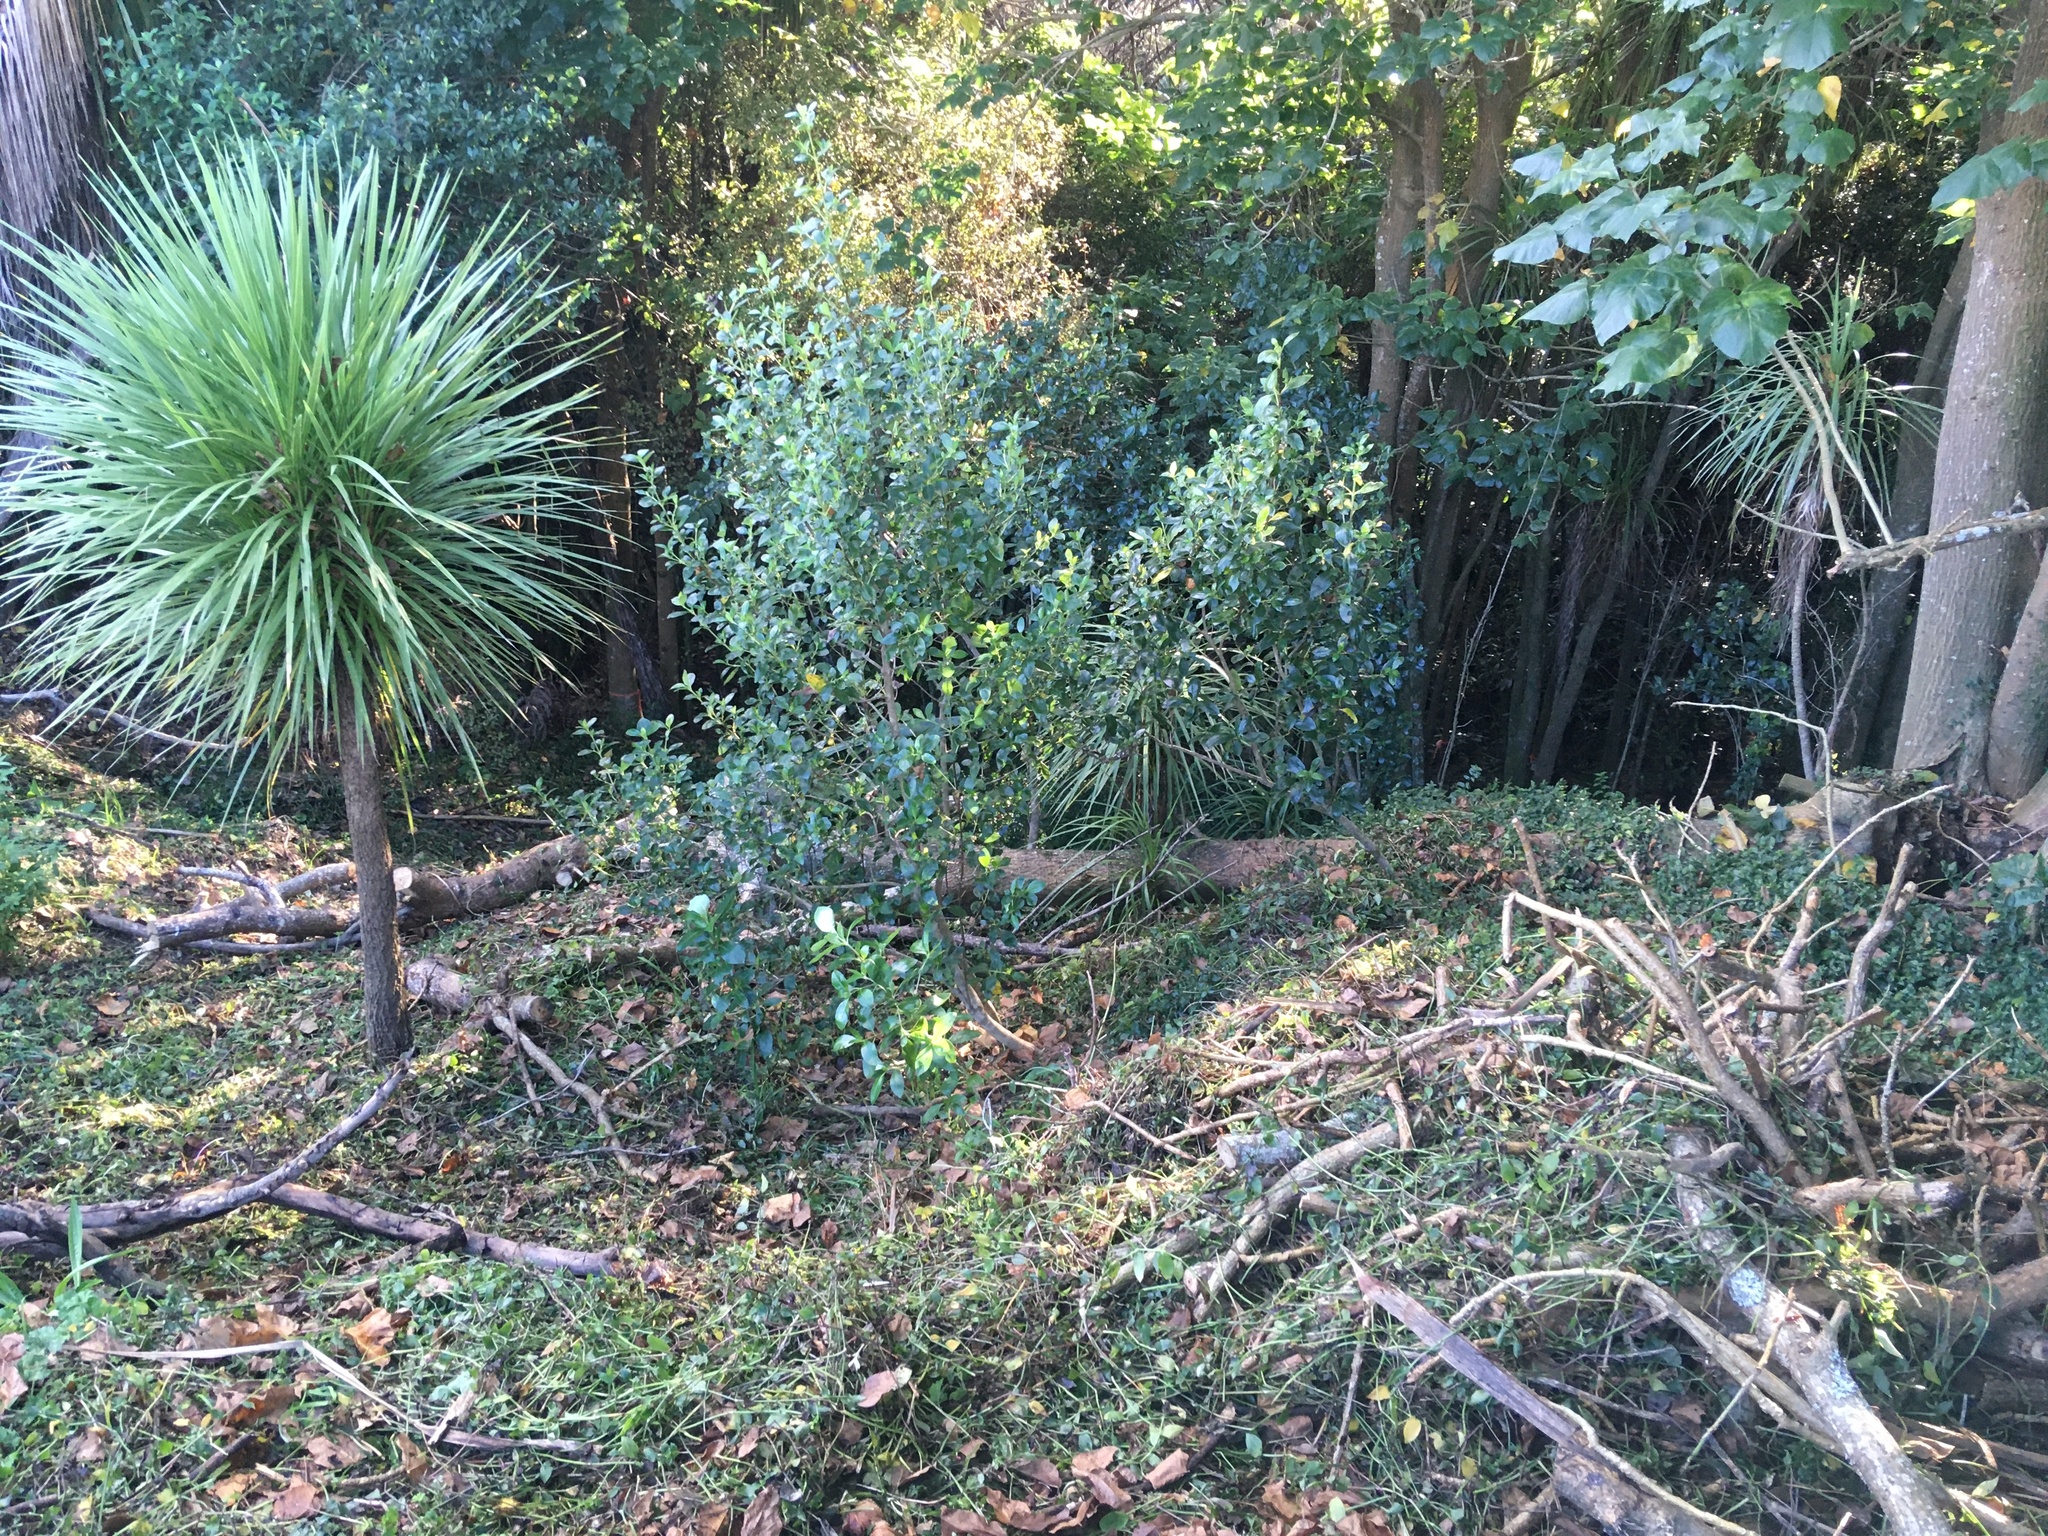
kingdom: Plantae
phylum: Tracheophyta
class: Magnoliopsida
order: Gentianales
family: Rubiaceae
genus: Coprosma
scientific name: Coprosma robusta
